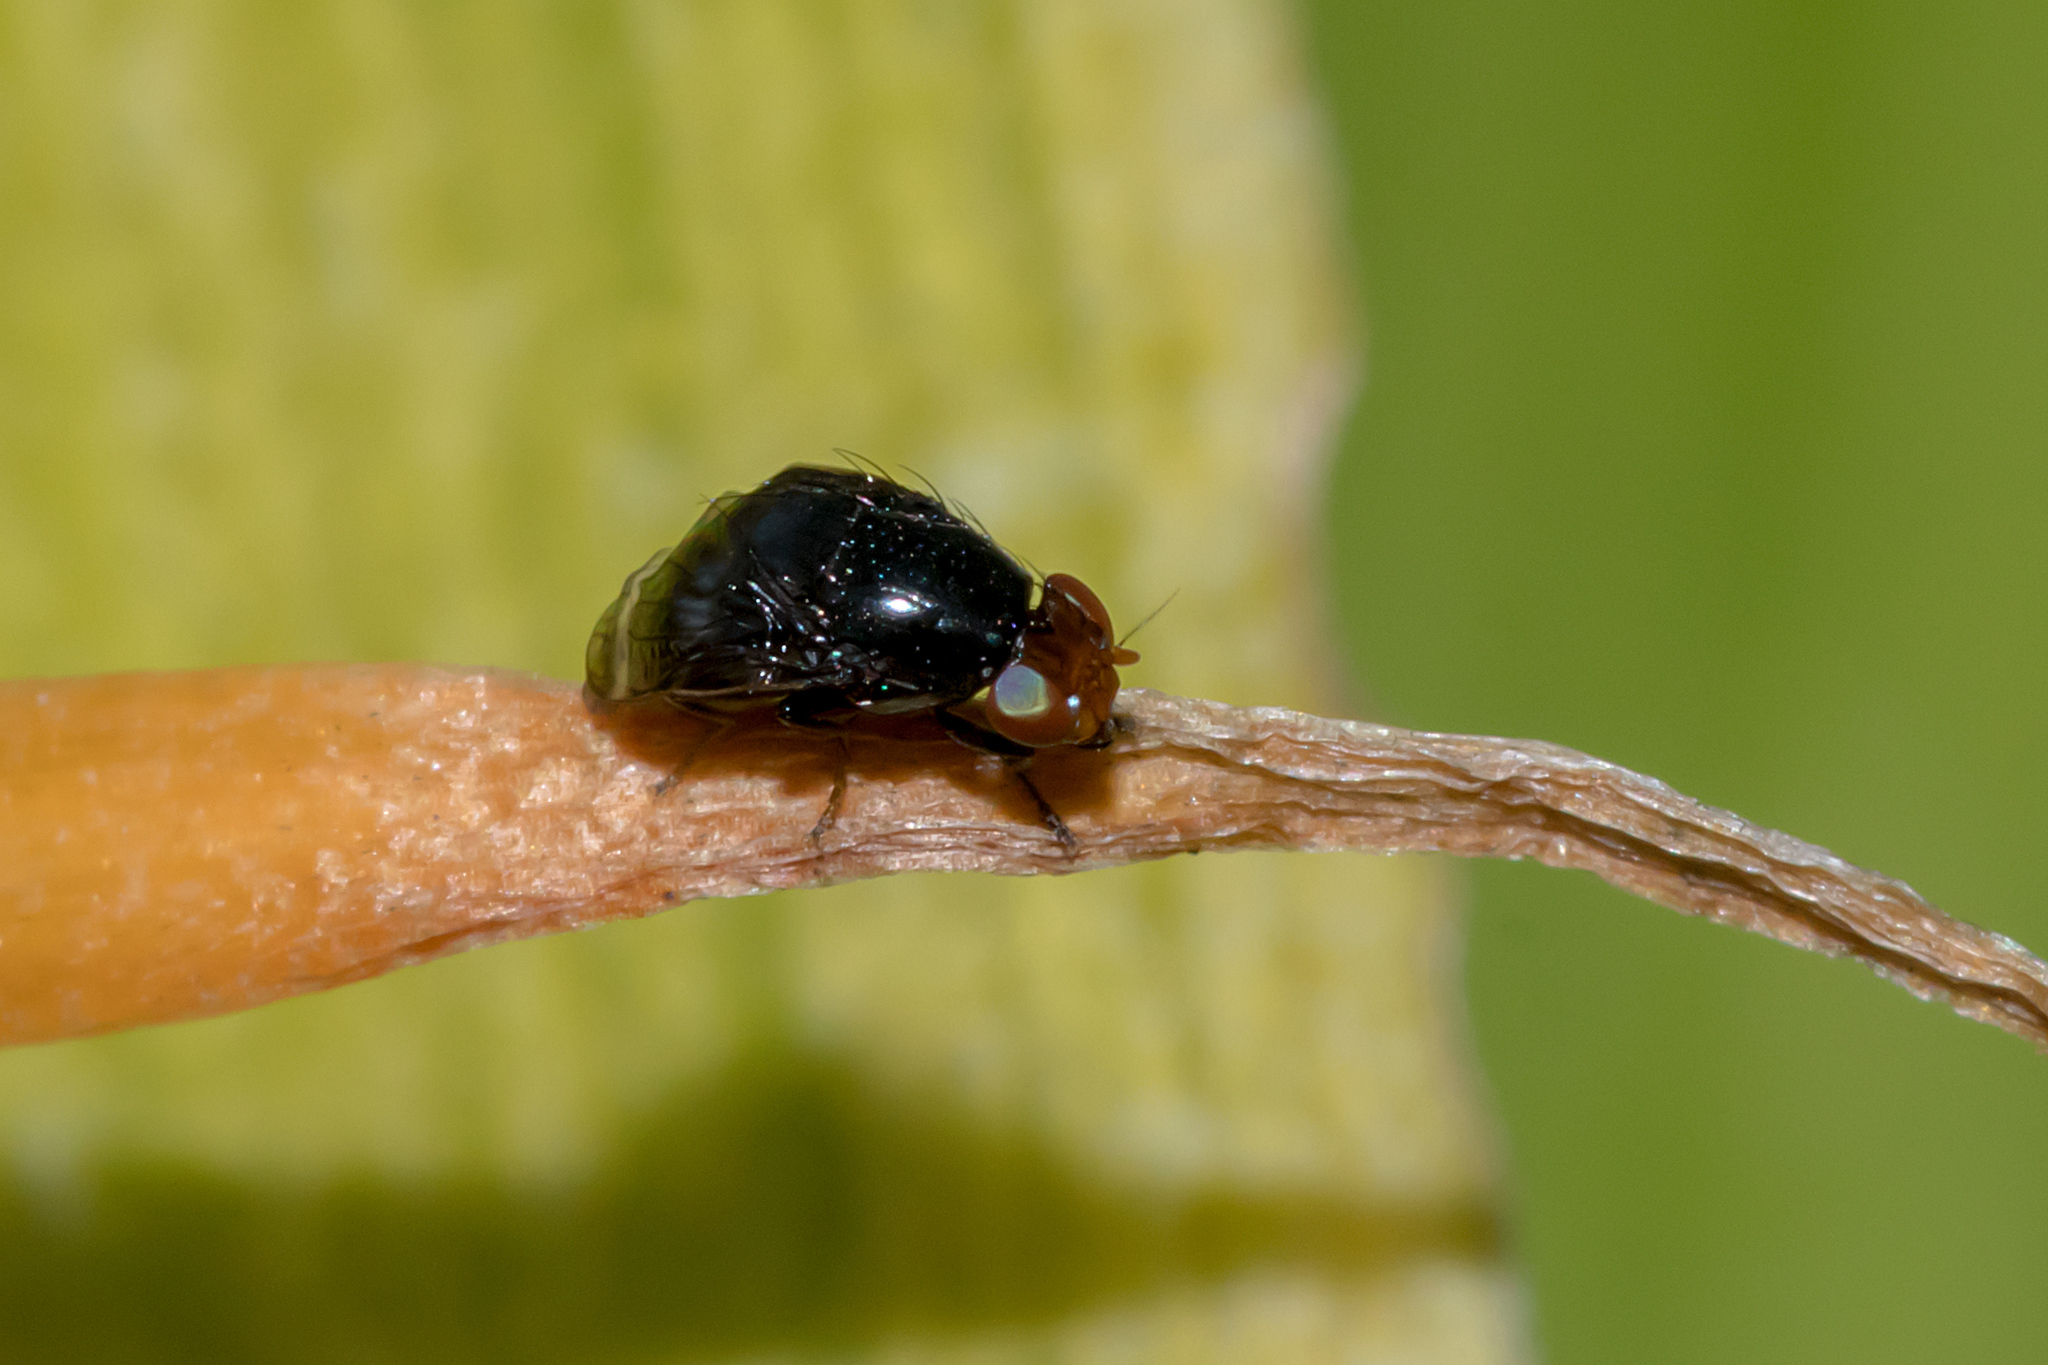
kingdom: Animalia
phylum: Arthropoda
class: Insecta
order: Diptera
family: Lauxaniidae
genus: Depressa
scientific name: Depressa atrata
